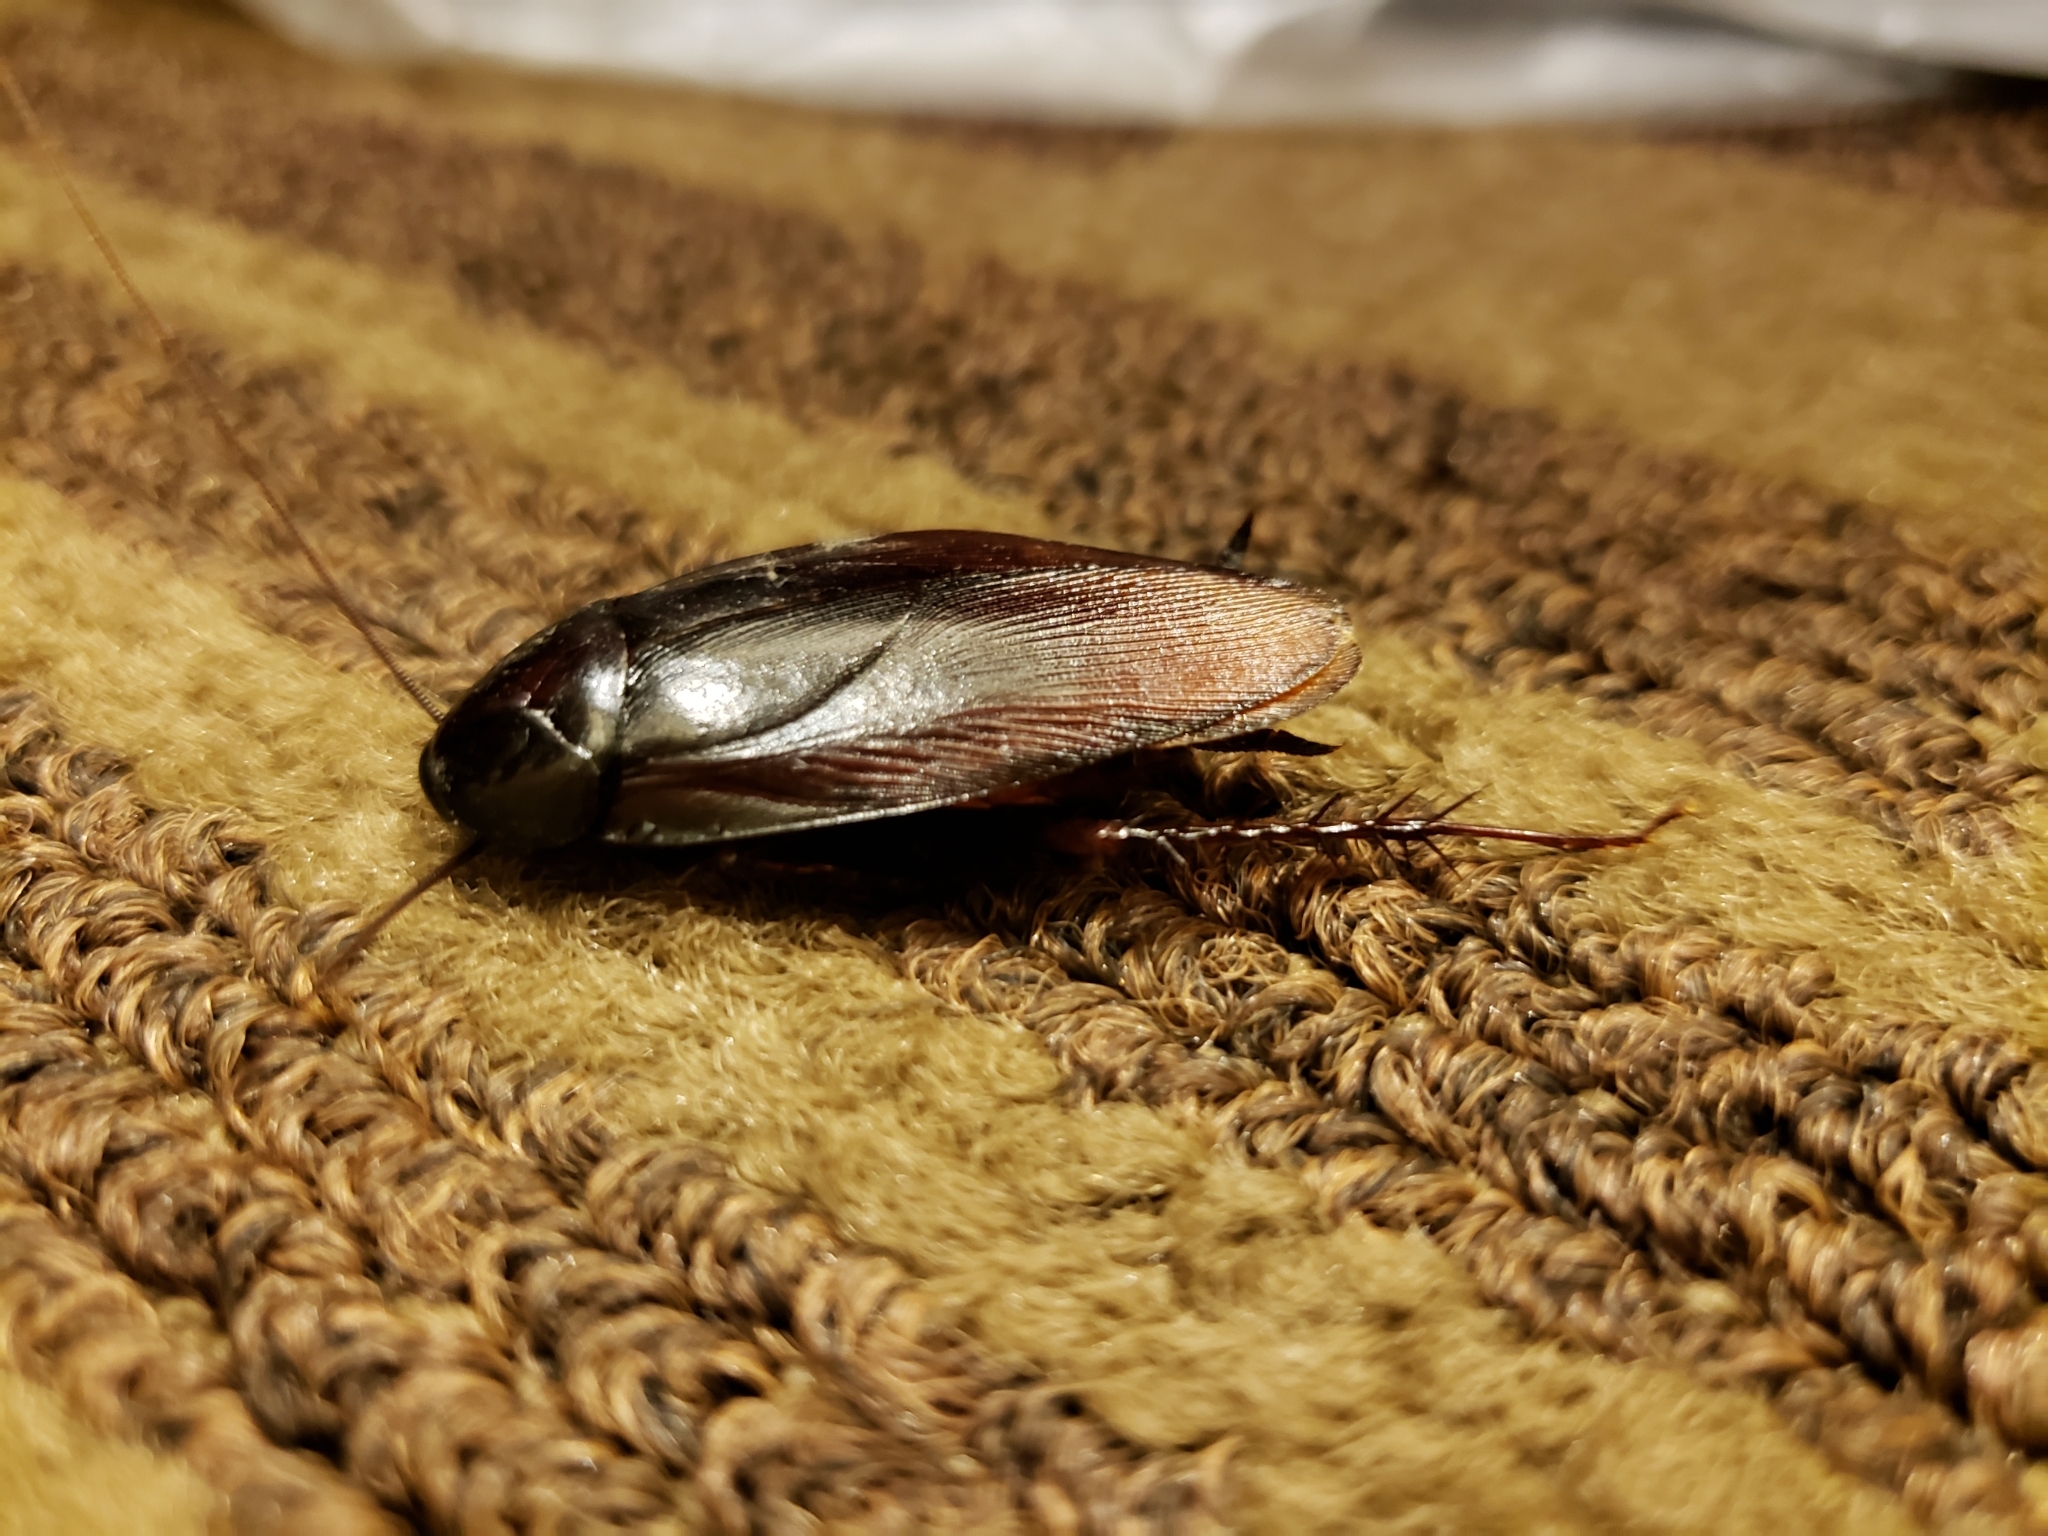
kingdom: Animalia
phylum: Arthropoda
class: Insecta
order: Blattodea
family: Blattidae
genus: Periplaneta
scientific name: Periplaneta fuliginosa
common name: Smokeybrown cockroad
